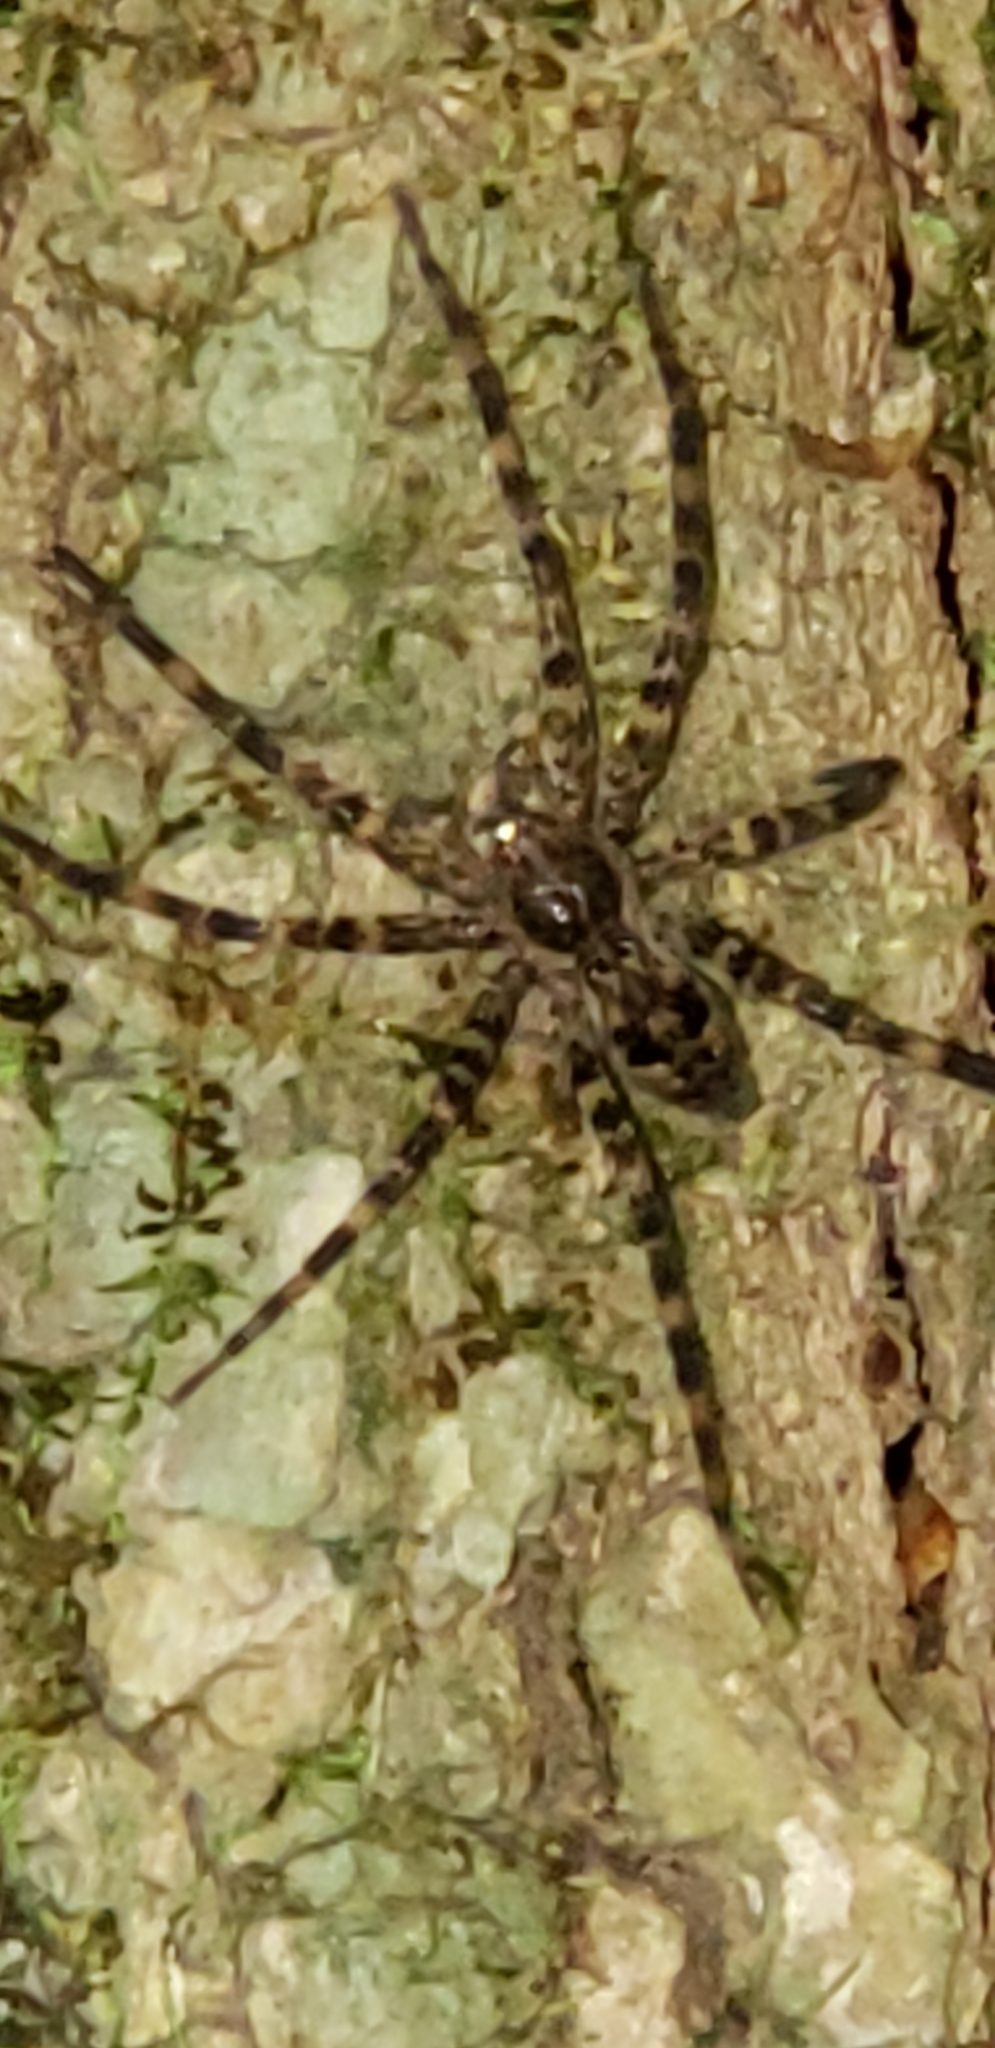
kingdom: Animalia
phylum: Arthropoda
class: Arachnida
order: Araneae
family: Pisauridae
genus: Dolomedes
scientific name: Dolomedes tenebrosus
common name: Dark fishing spider
